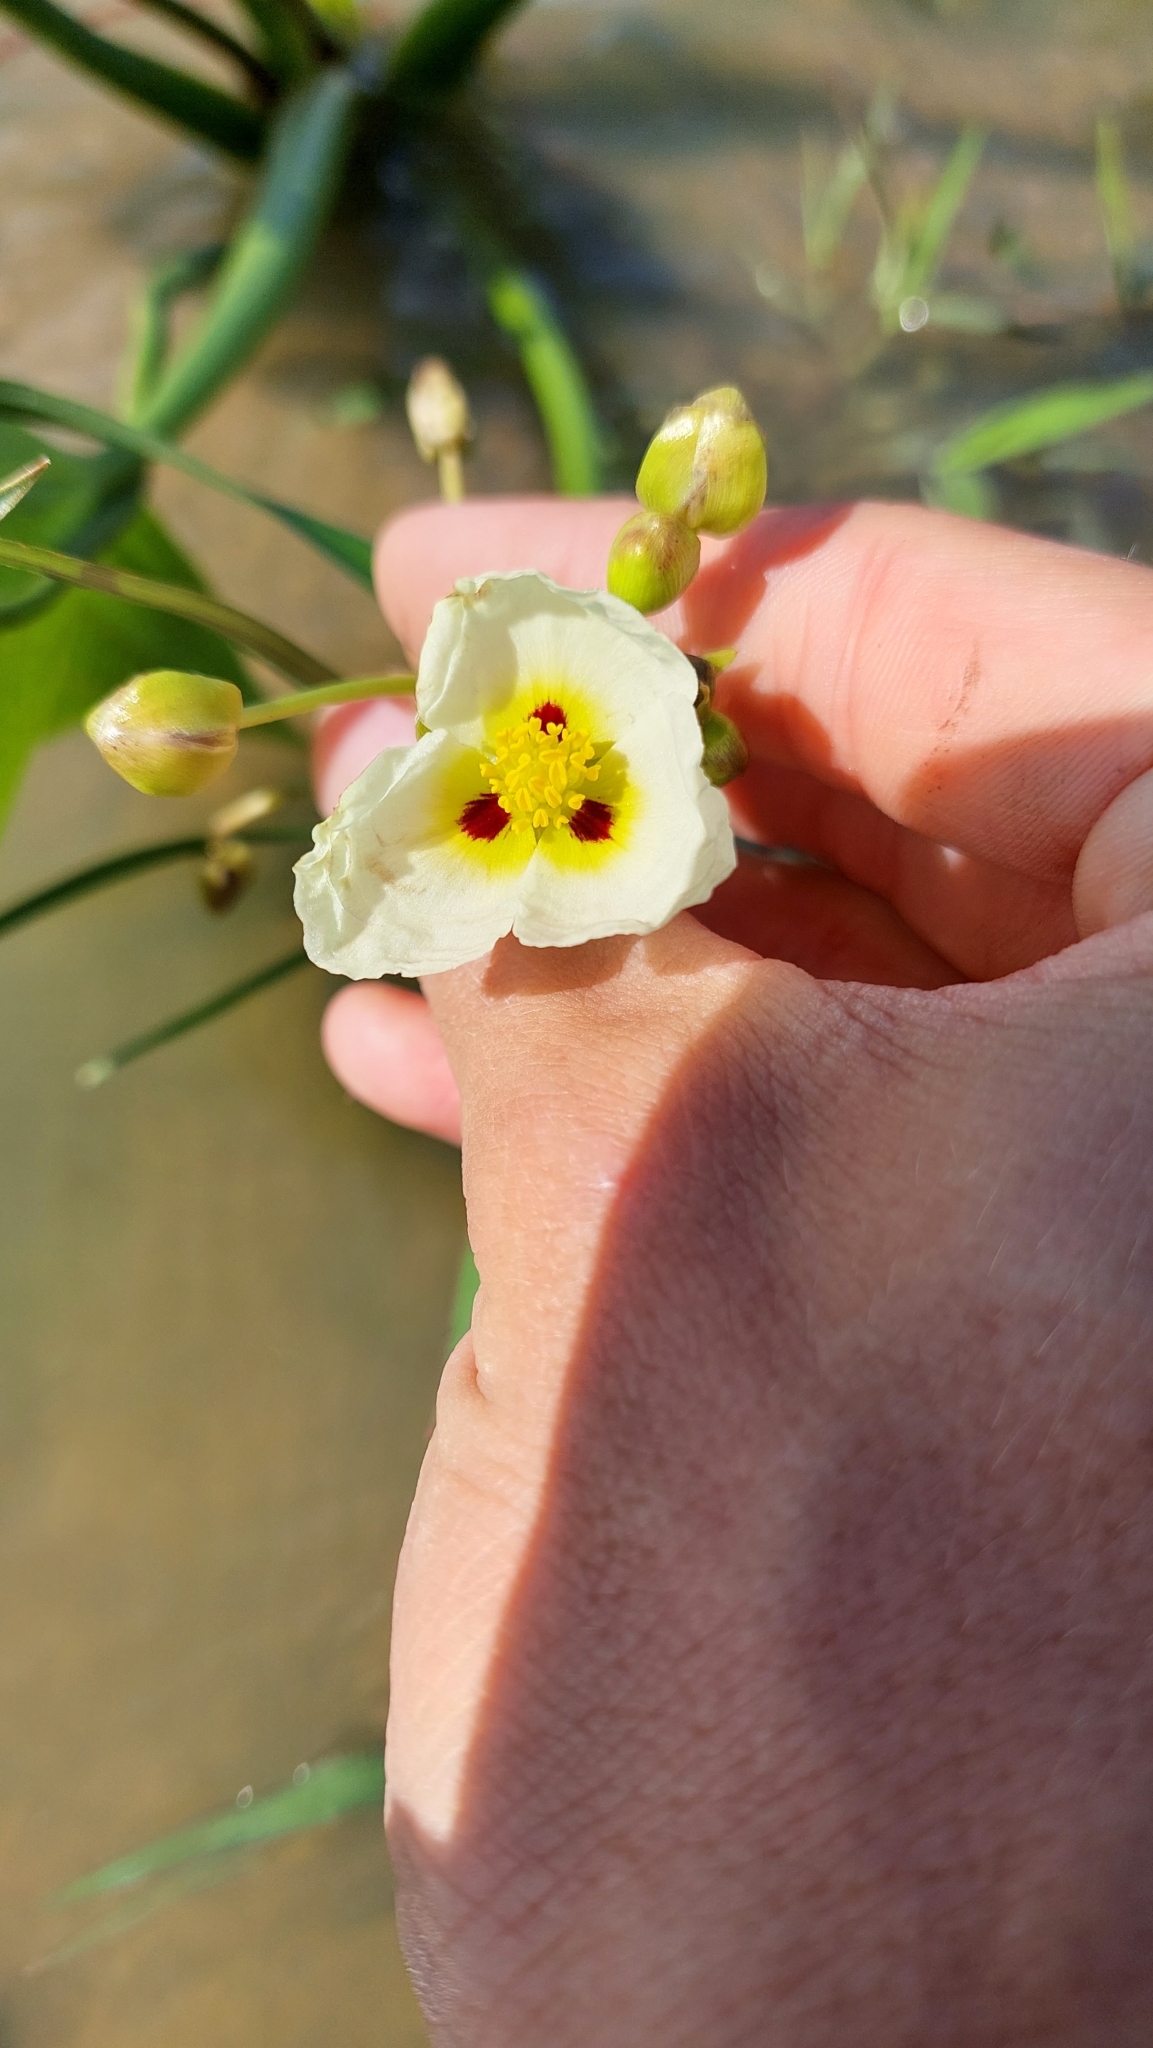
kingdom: Plantae
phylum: Tracheophyta
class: Liliopsida
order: Alismatales
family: Alismataceae
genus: Sagittaria
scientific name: Sagittaria montevidensis
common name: Giant arrowhead
